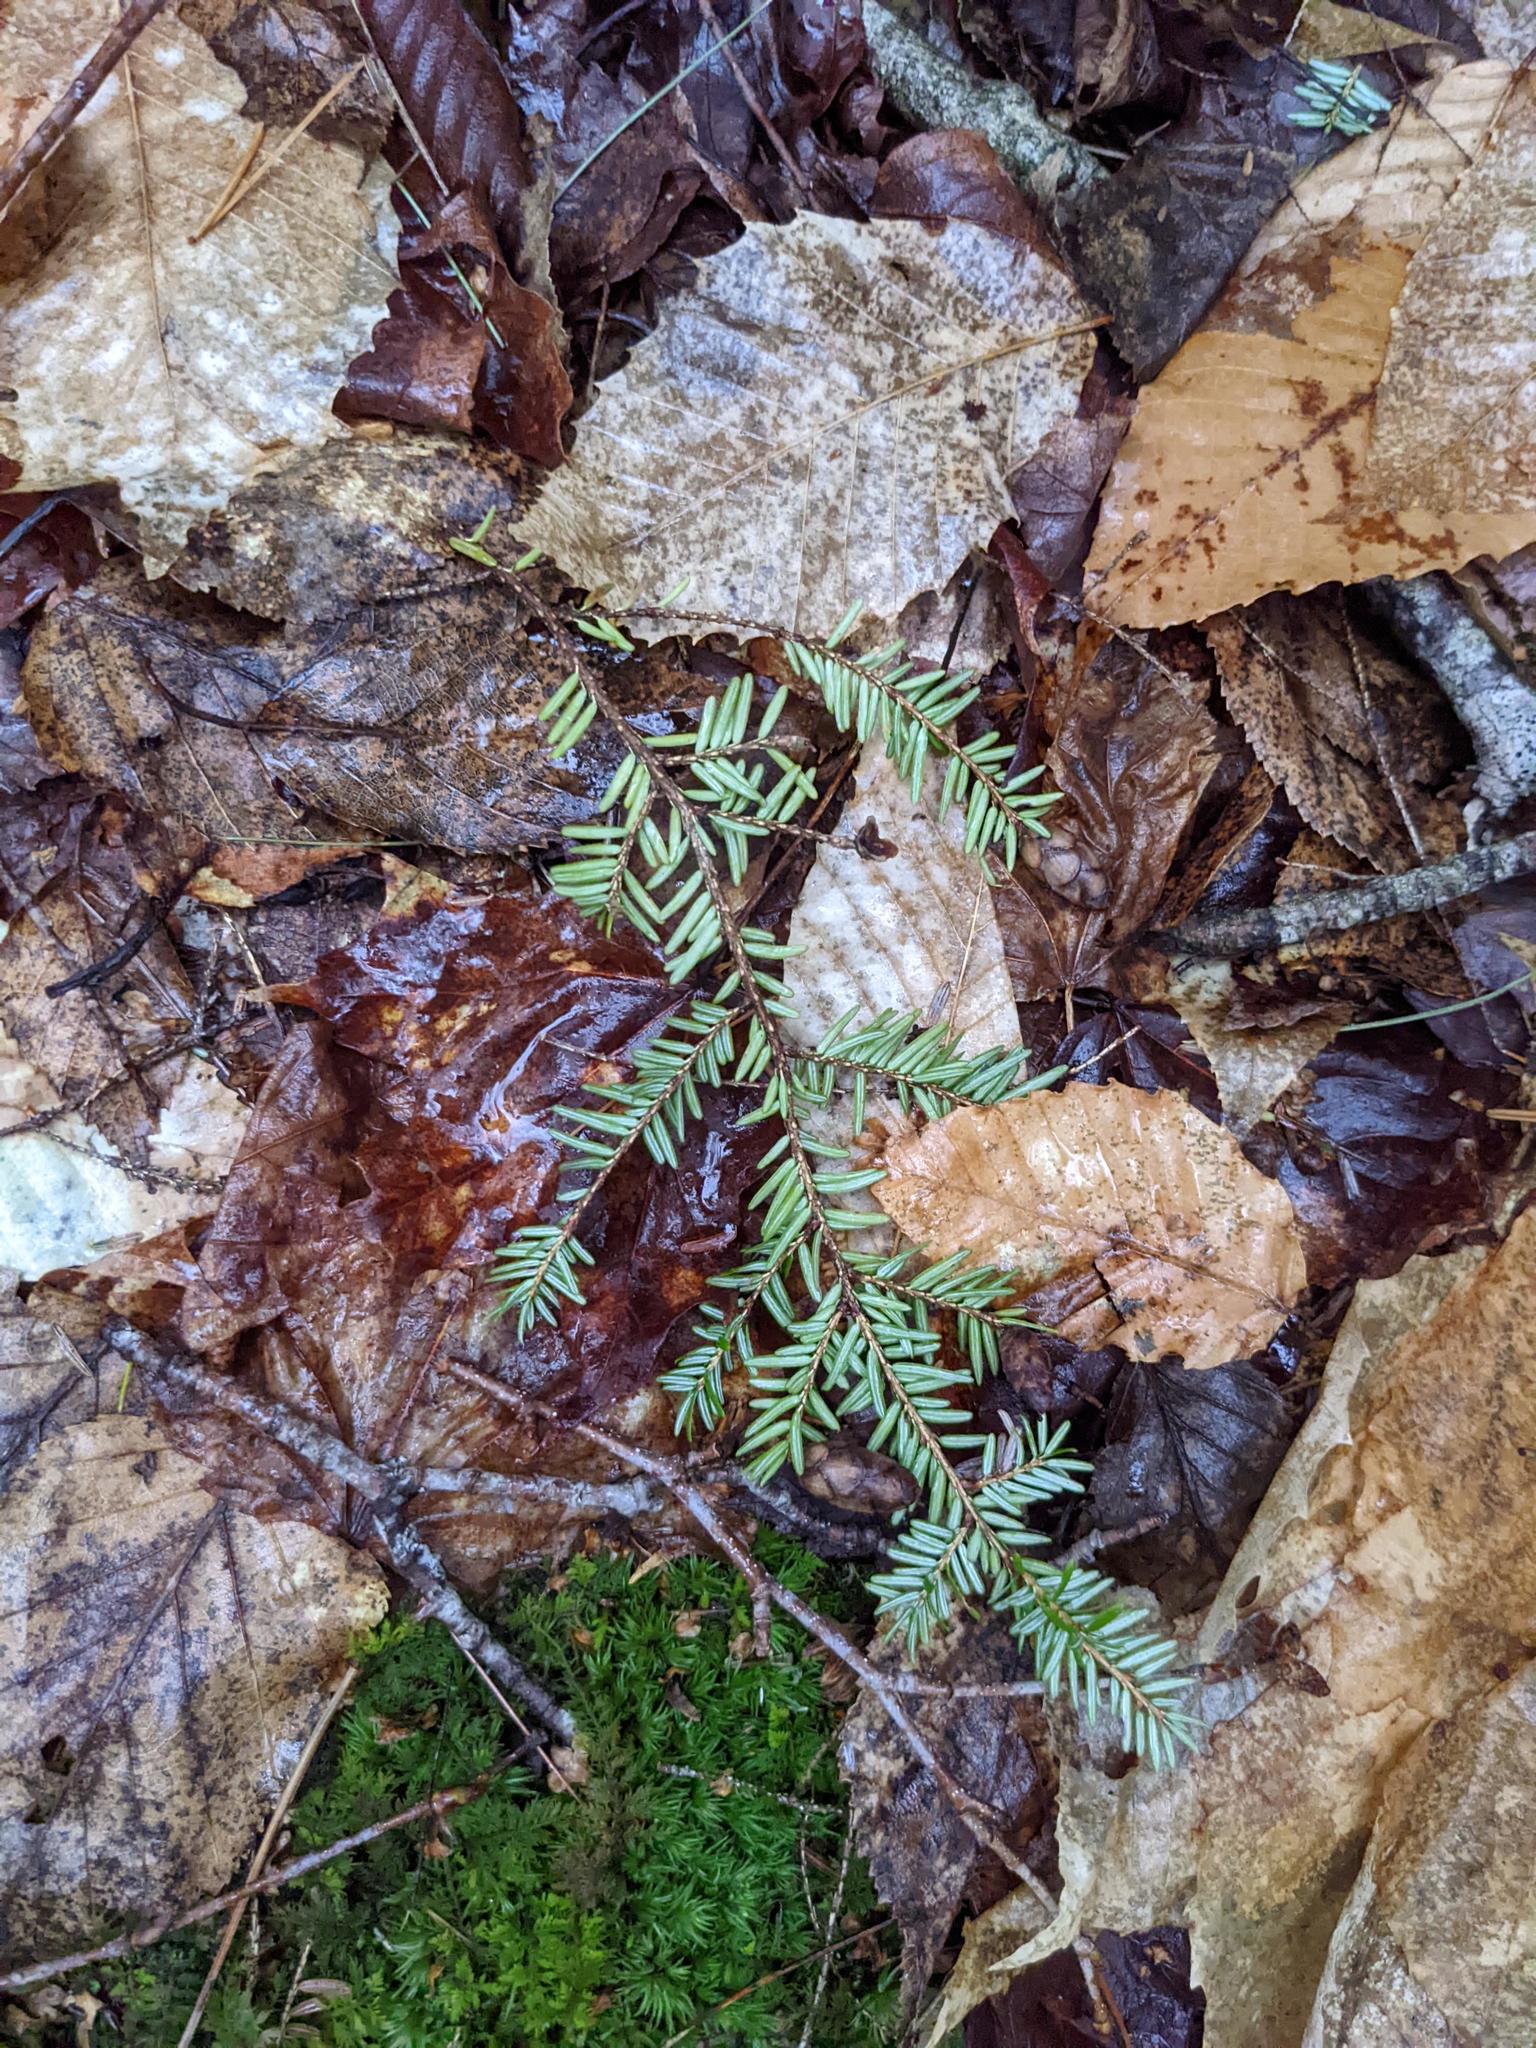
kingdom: Plantae
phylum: Tracheophyta
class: Pinopsida
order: Pinales
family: Pinaceae
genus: Tsuga
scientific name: Tsuga canadensis
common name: Eastern hemlock
